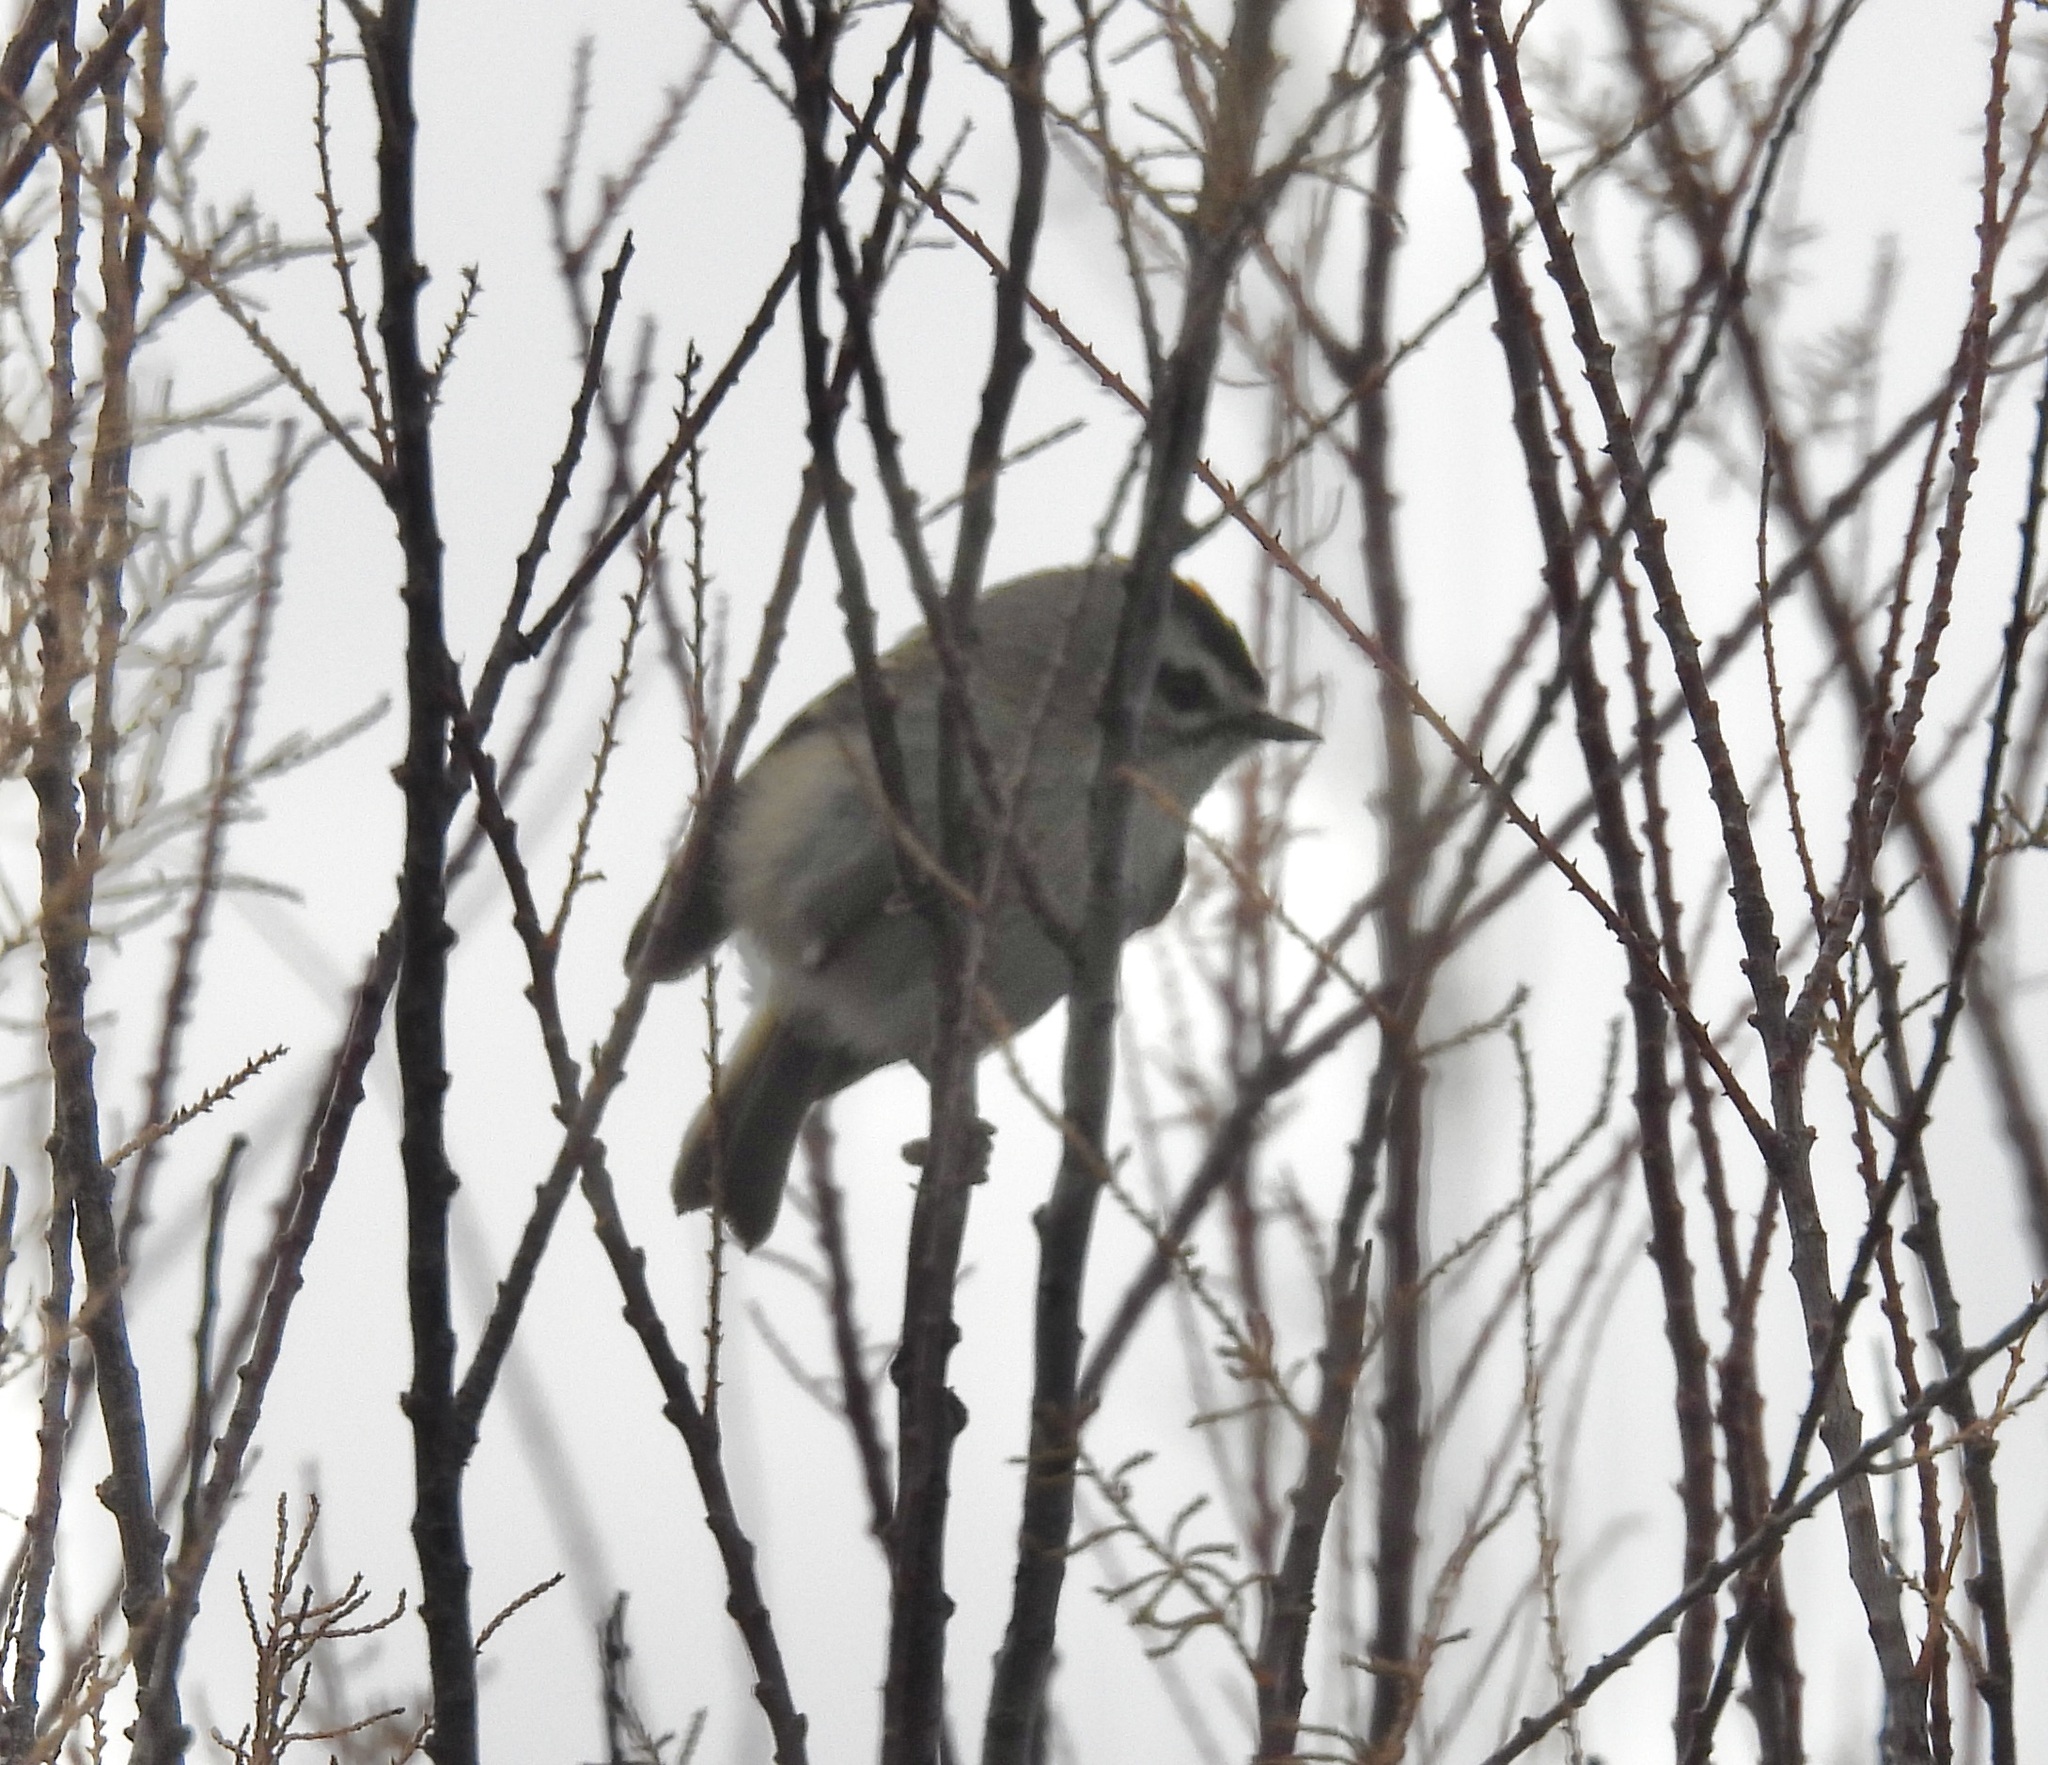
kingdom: Animalia
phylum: Chordata
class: Aves
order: Passeriformes
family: Regulidae
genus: Regulus
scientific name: Regulus satrapa
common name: Golden-crowned kinglet
